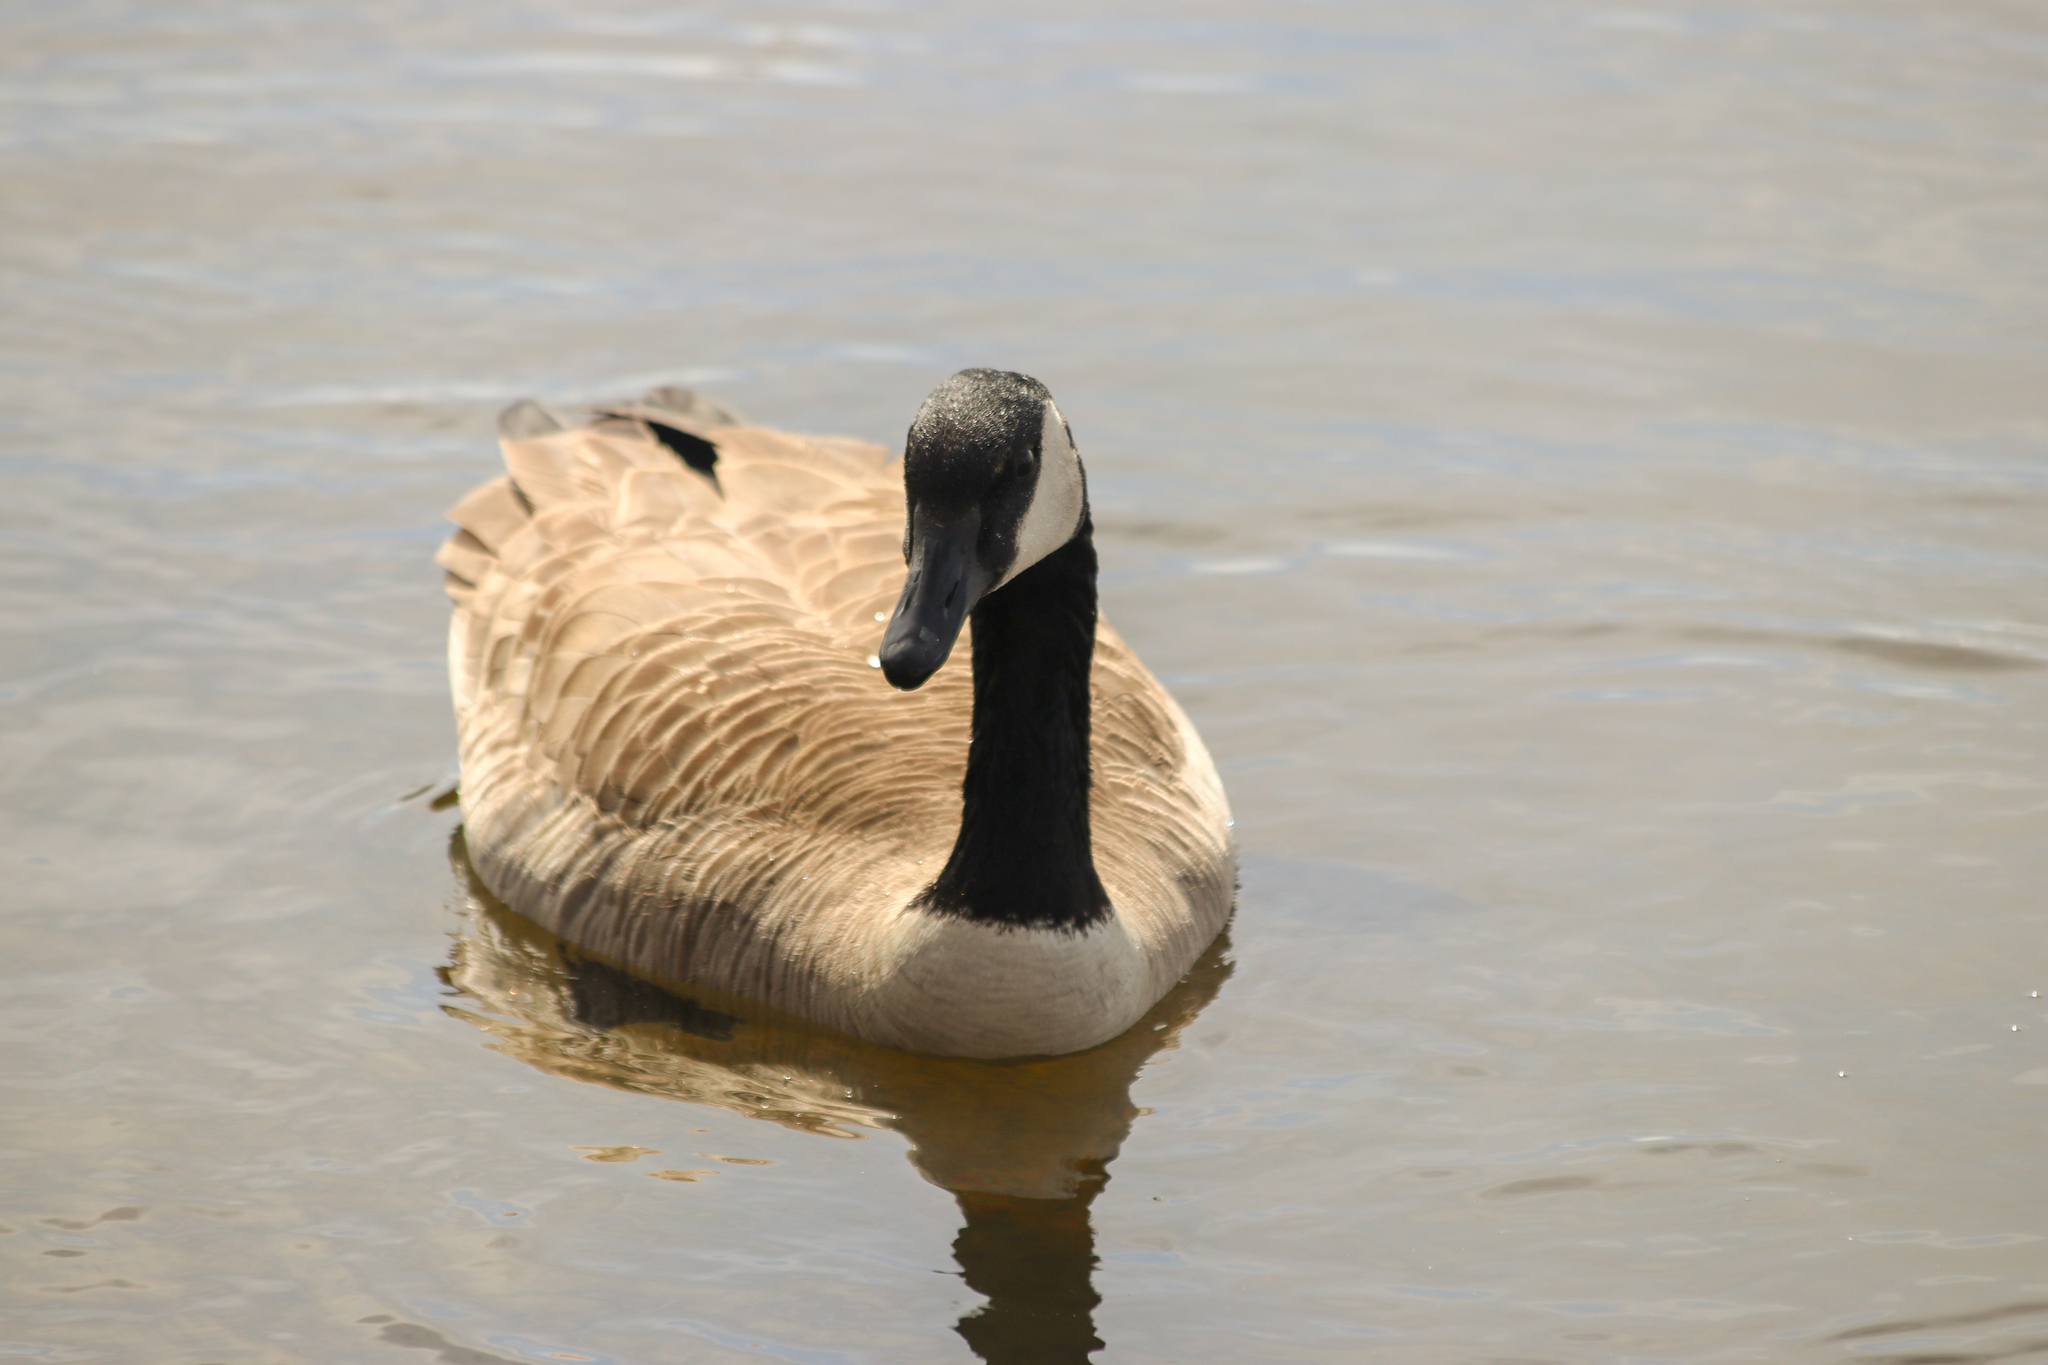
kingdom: Animalia
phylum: Chordata
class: Aves
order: Anseriformes
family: Anatidae
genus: Branta
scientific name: Branta canadensis
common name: Canada goose
